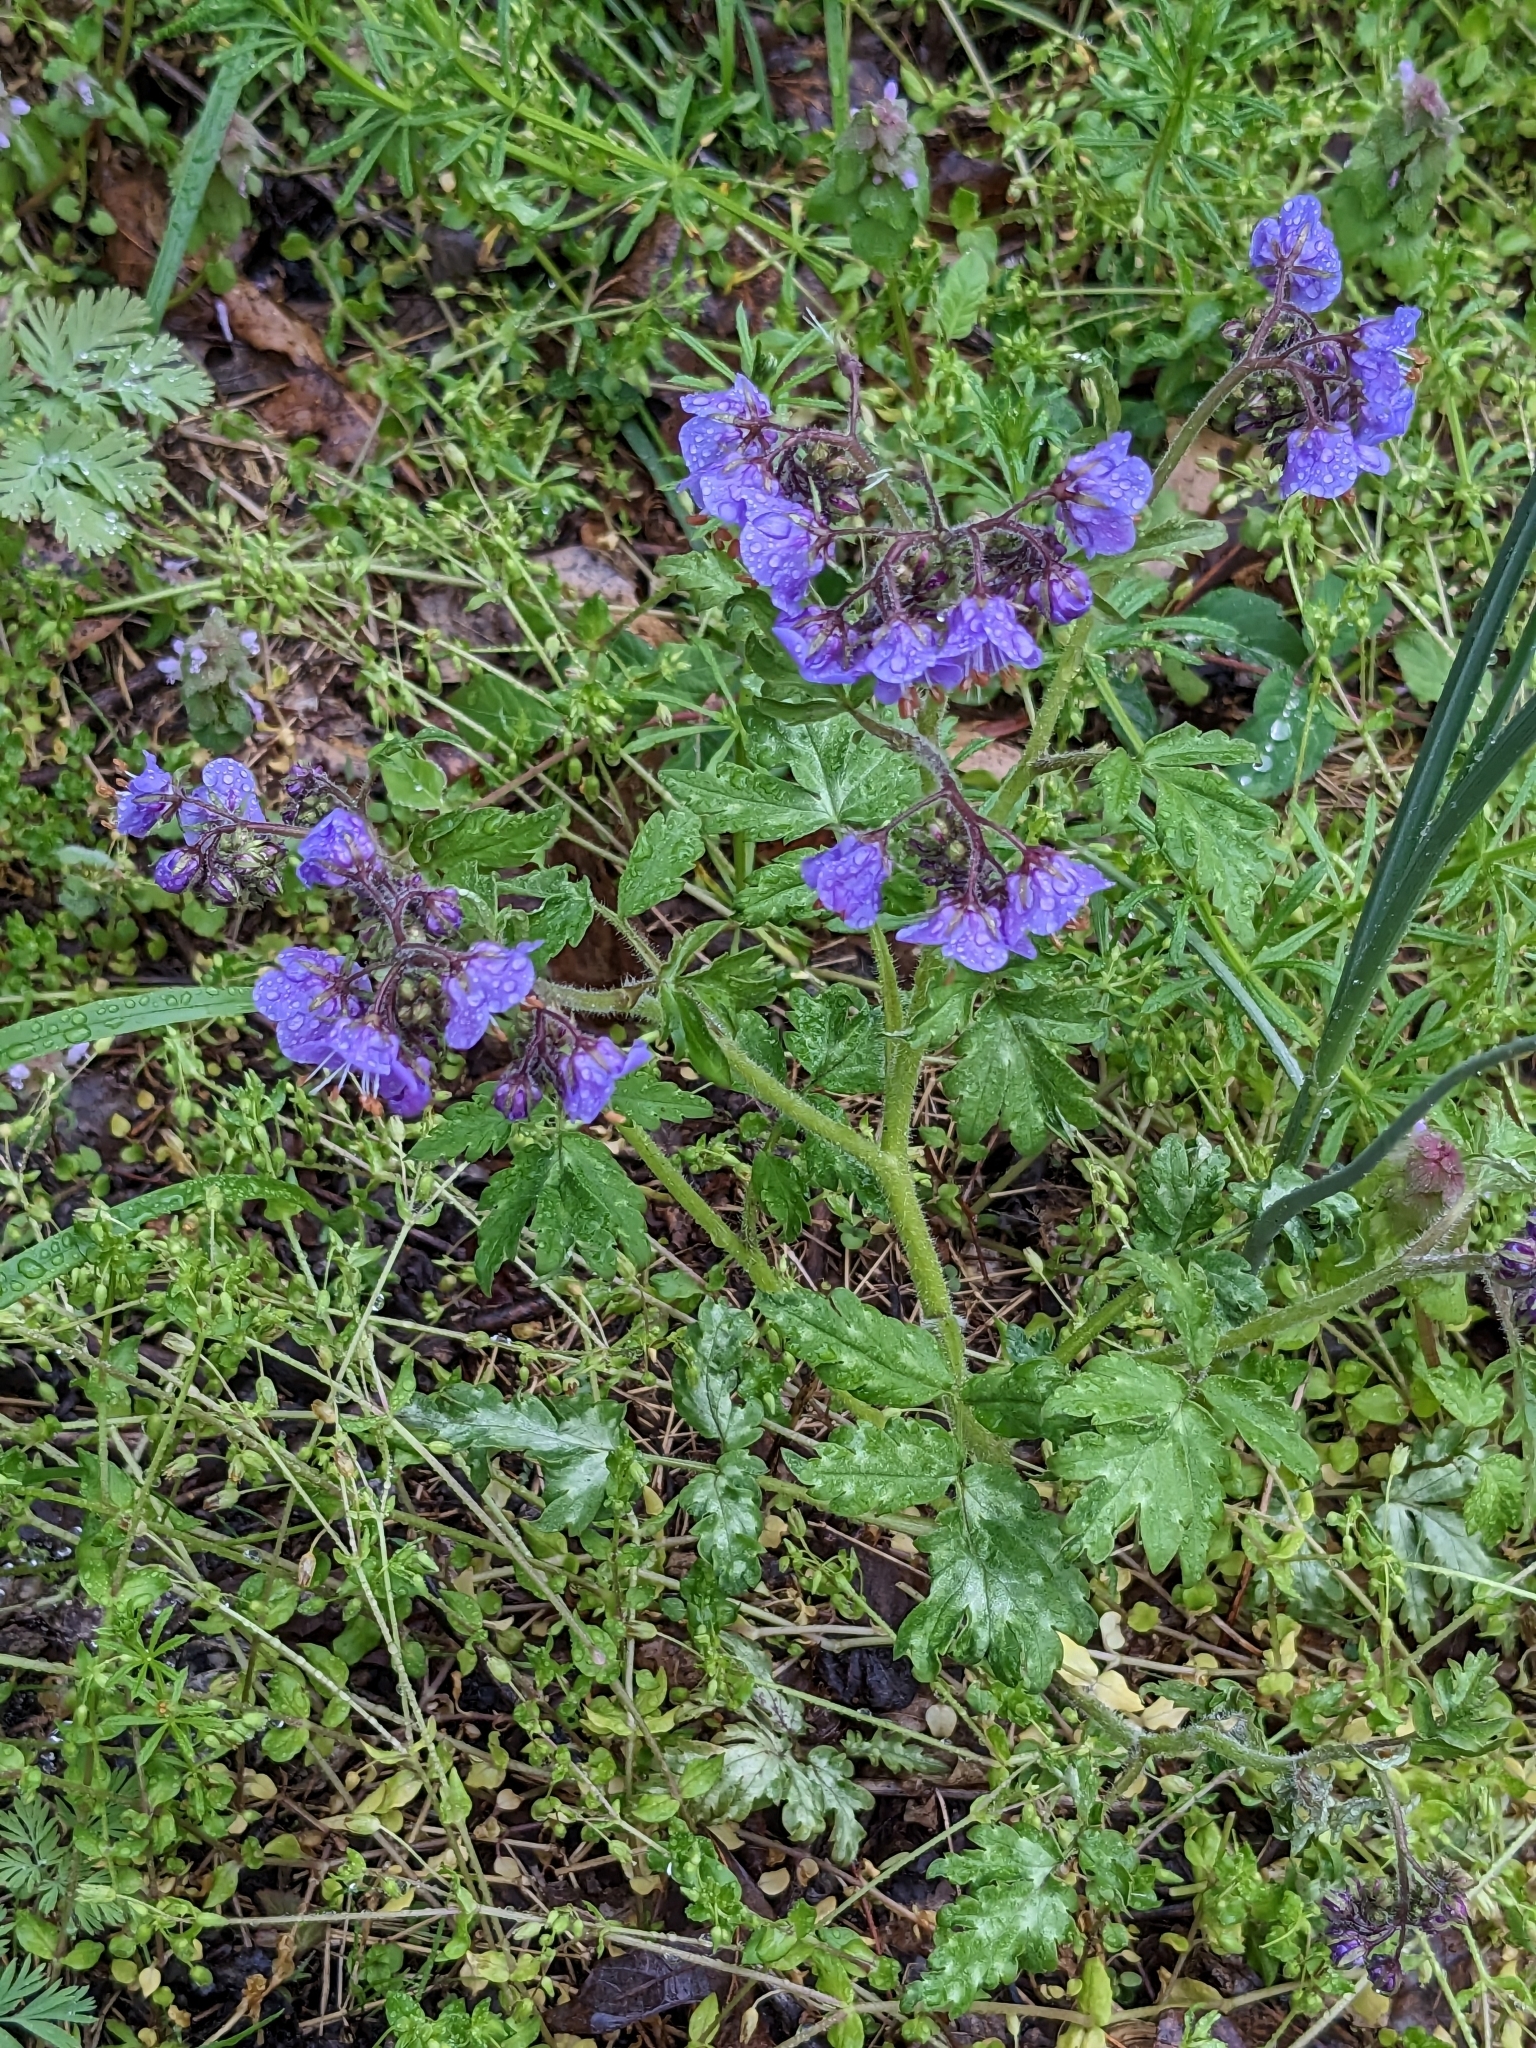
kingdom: Plantae
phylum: Tracheophyta
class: Magnoliopsida
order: Boraginales
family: Hydrophyllaceae
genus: Phacelia
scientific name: Phacelia bipinnatifida
